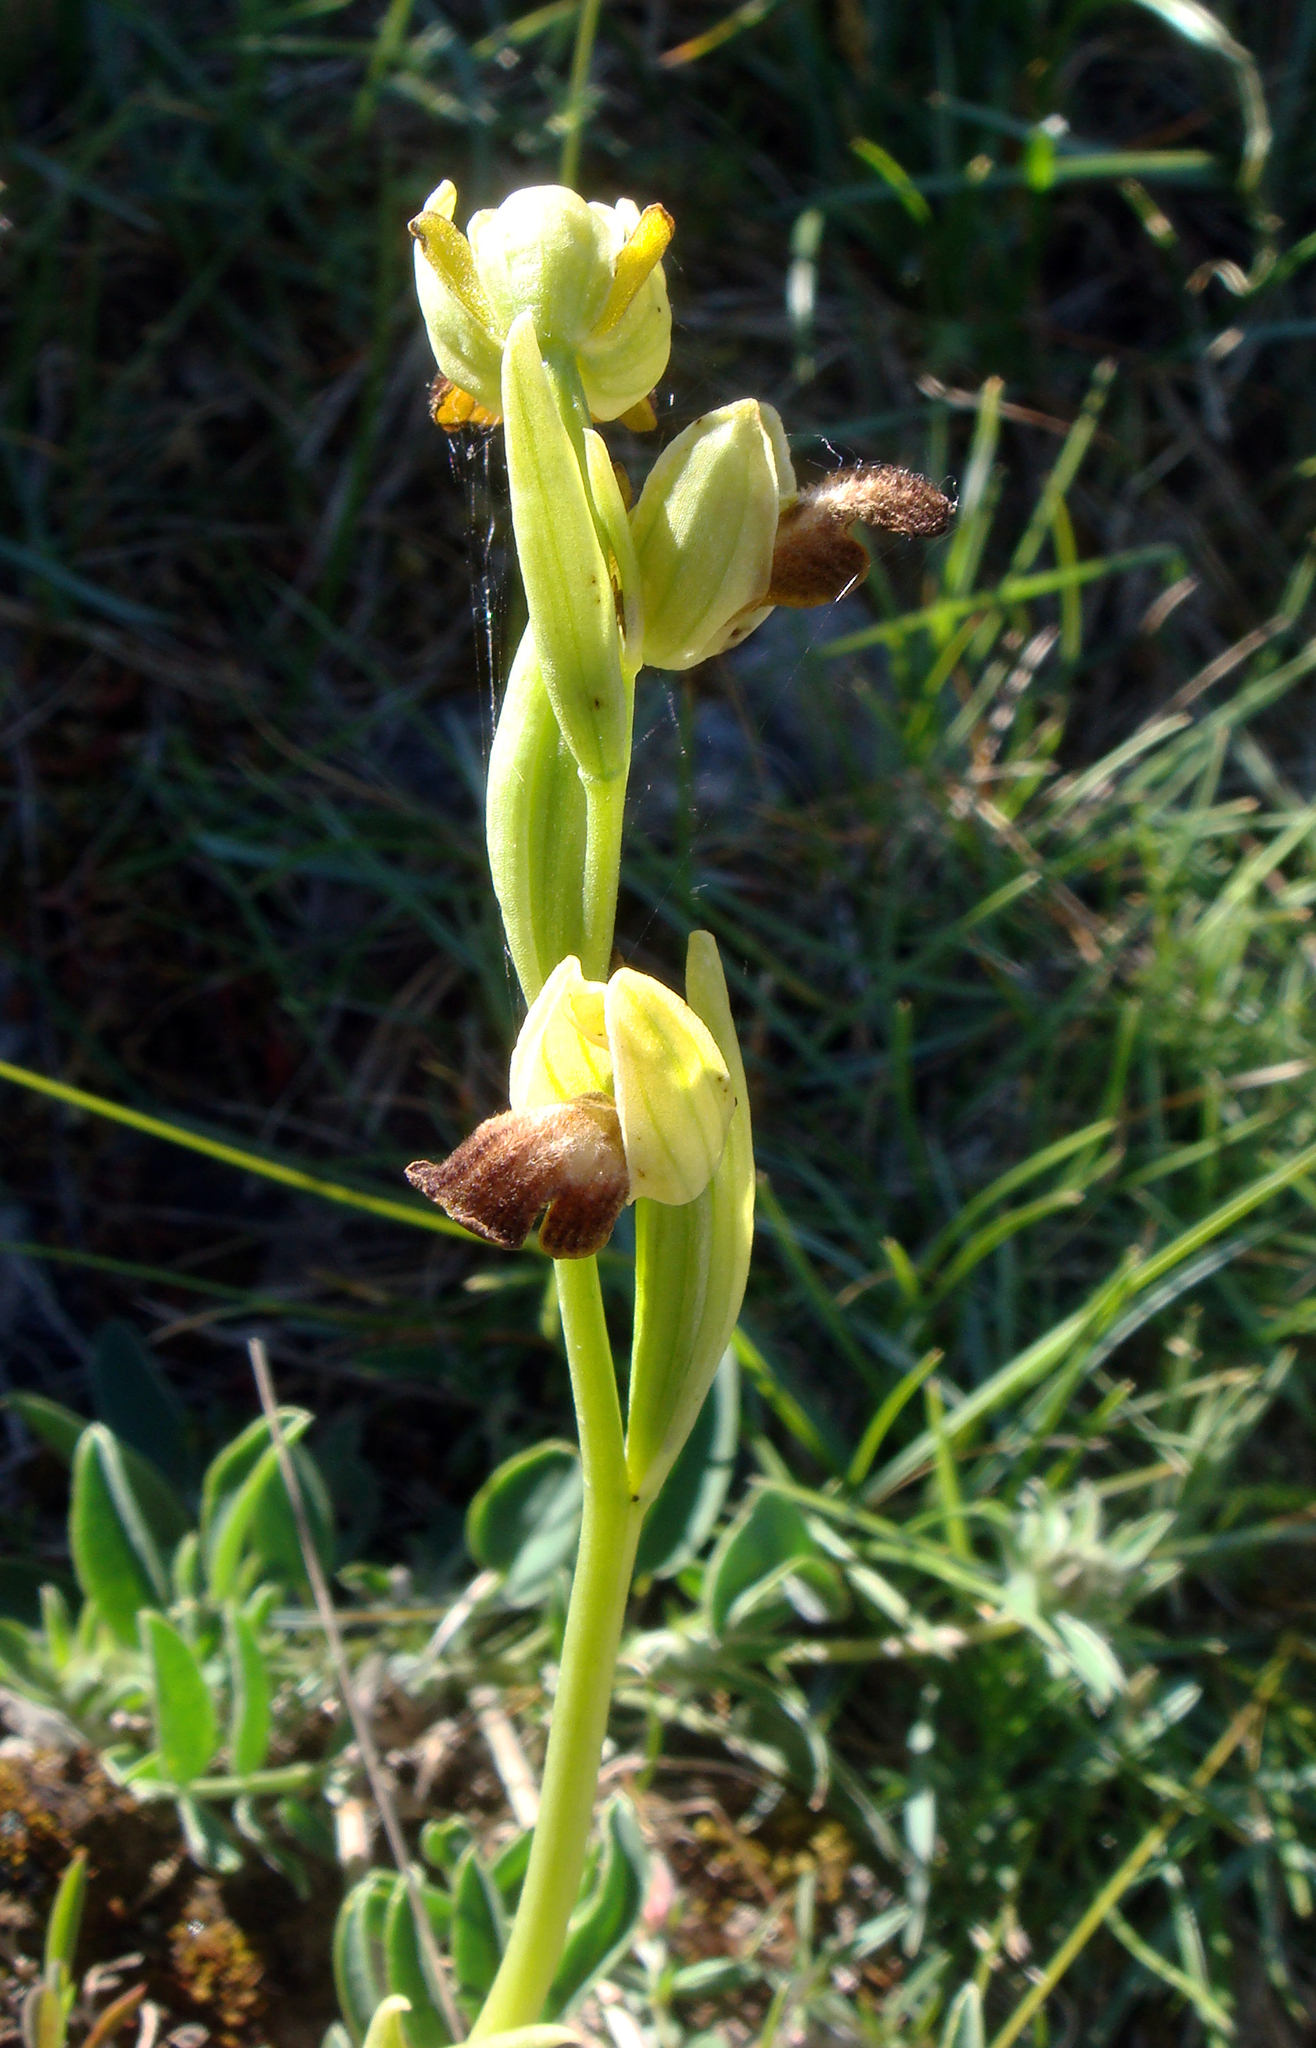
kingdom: Plantae
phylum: Tracheophyta
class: Liliopsida
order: Asparagales
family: Orchidaceae
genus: Ophrys
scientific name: Ophrys fusca
